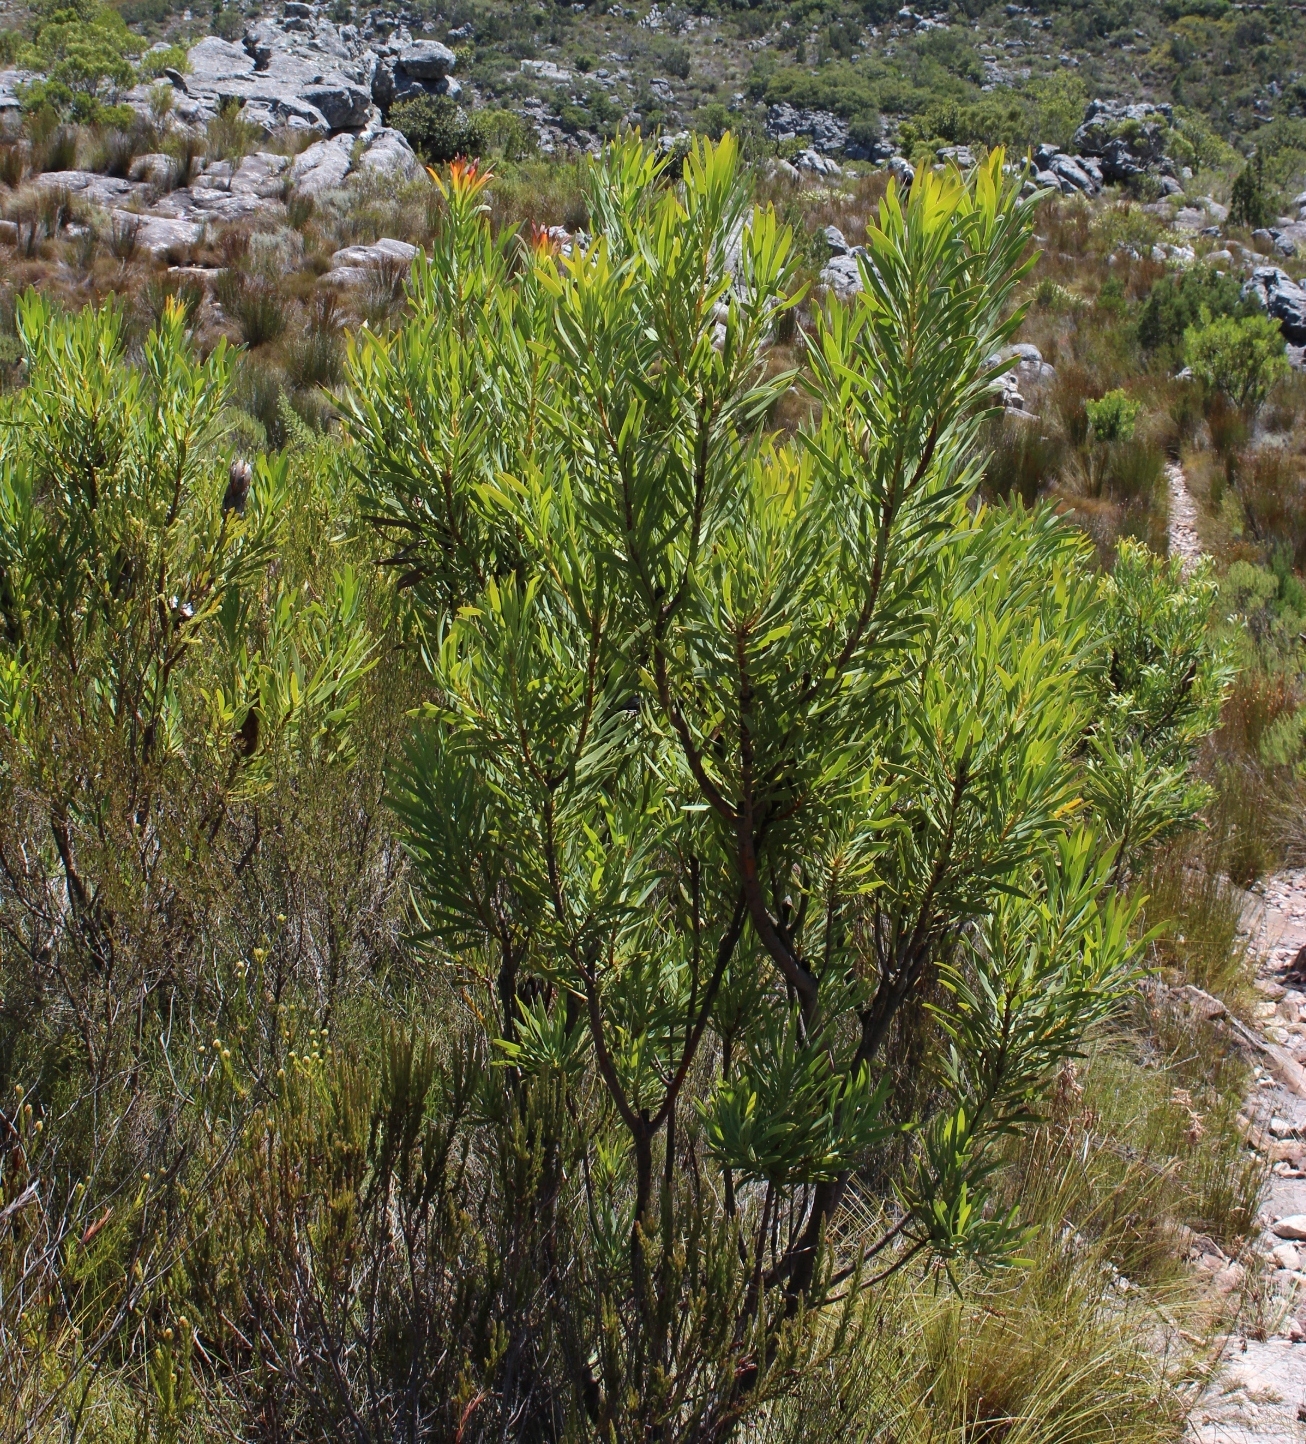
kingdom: Plantae
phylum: Tracheophyta
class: Magnoliopsida
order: Proteales
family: Proteaceae
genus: Protea
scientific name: Protea repens
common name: Sugarbush
